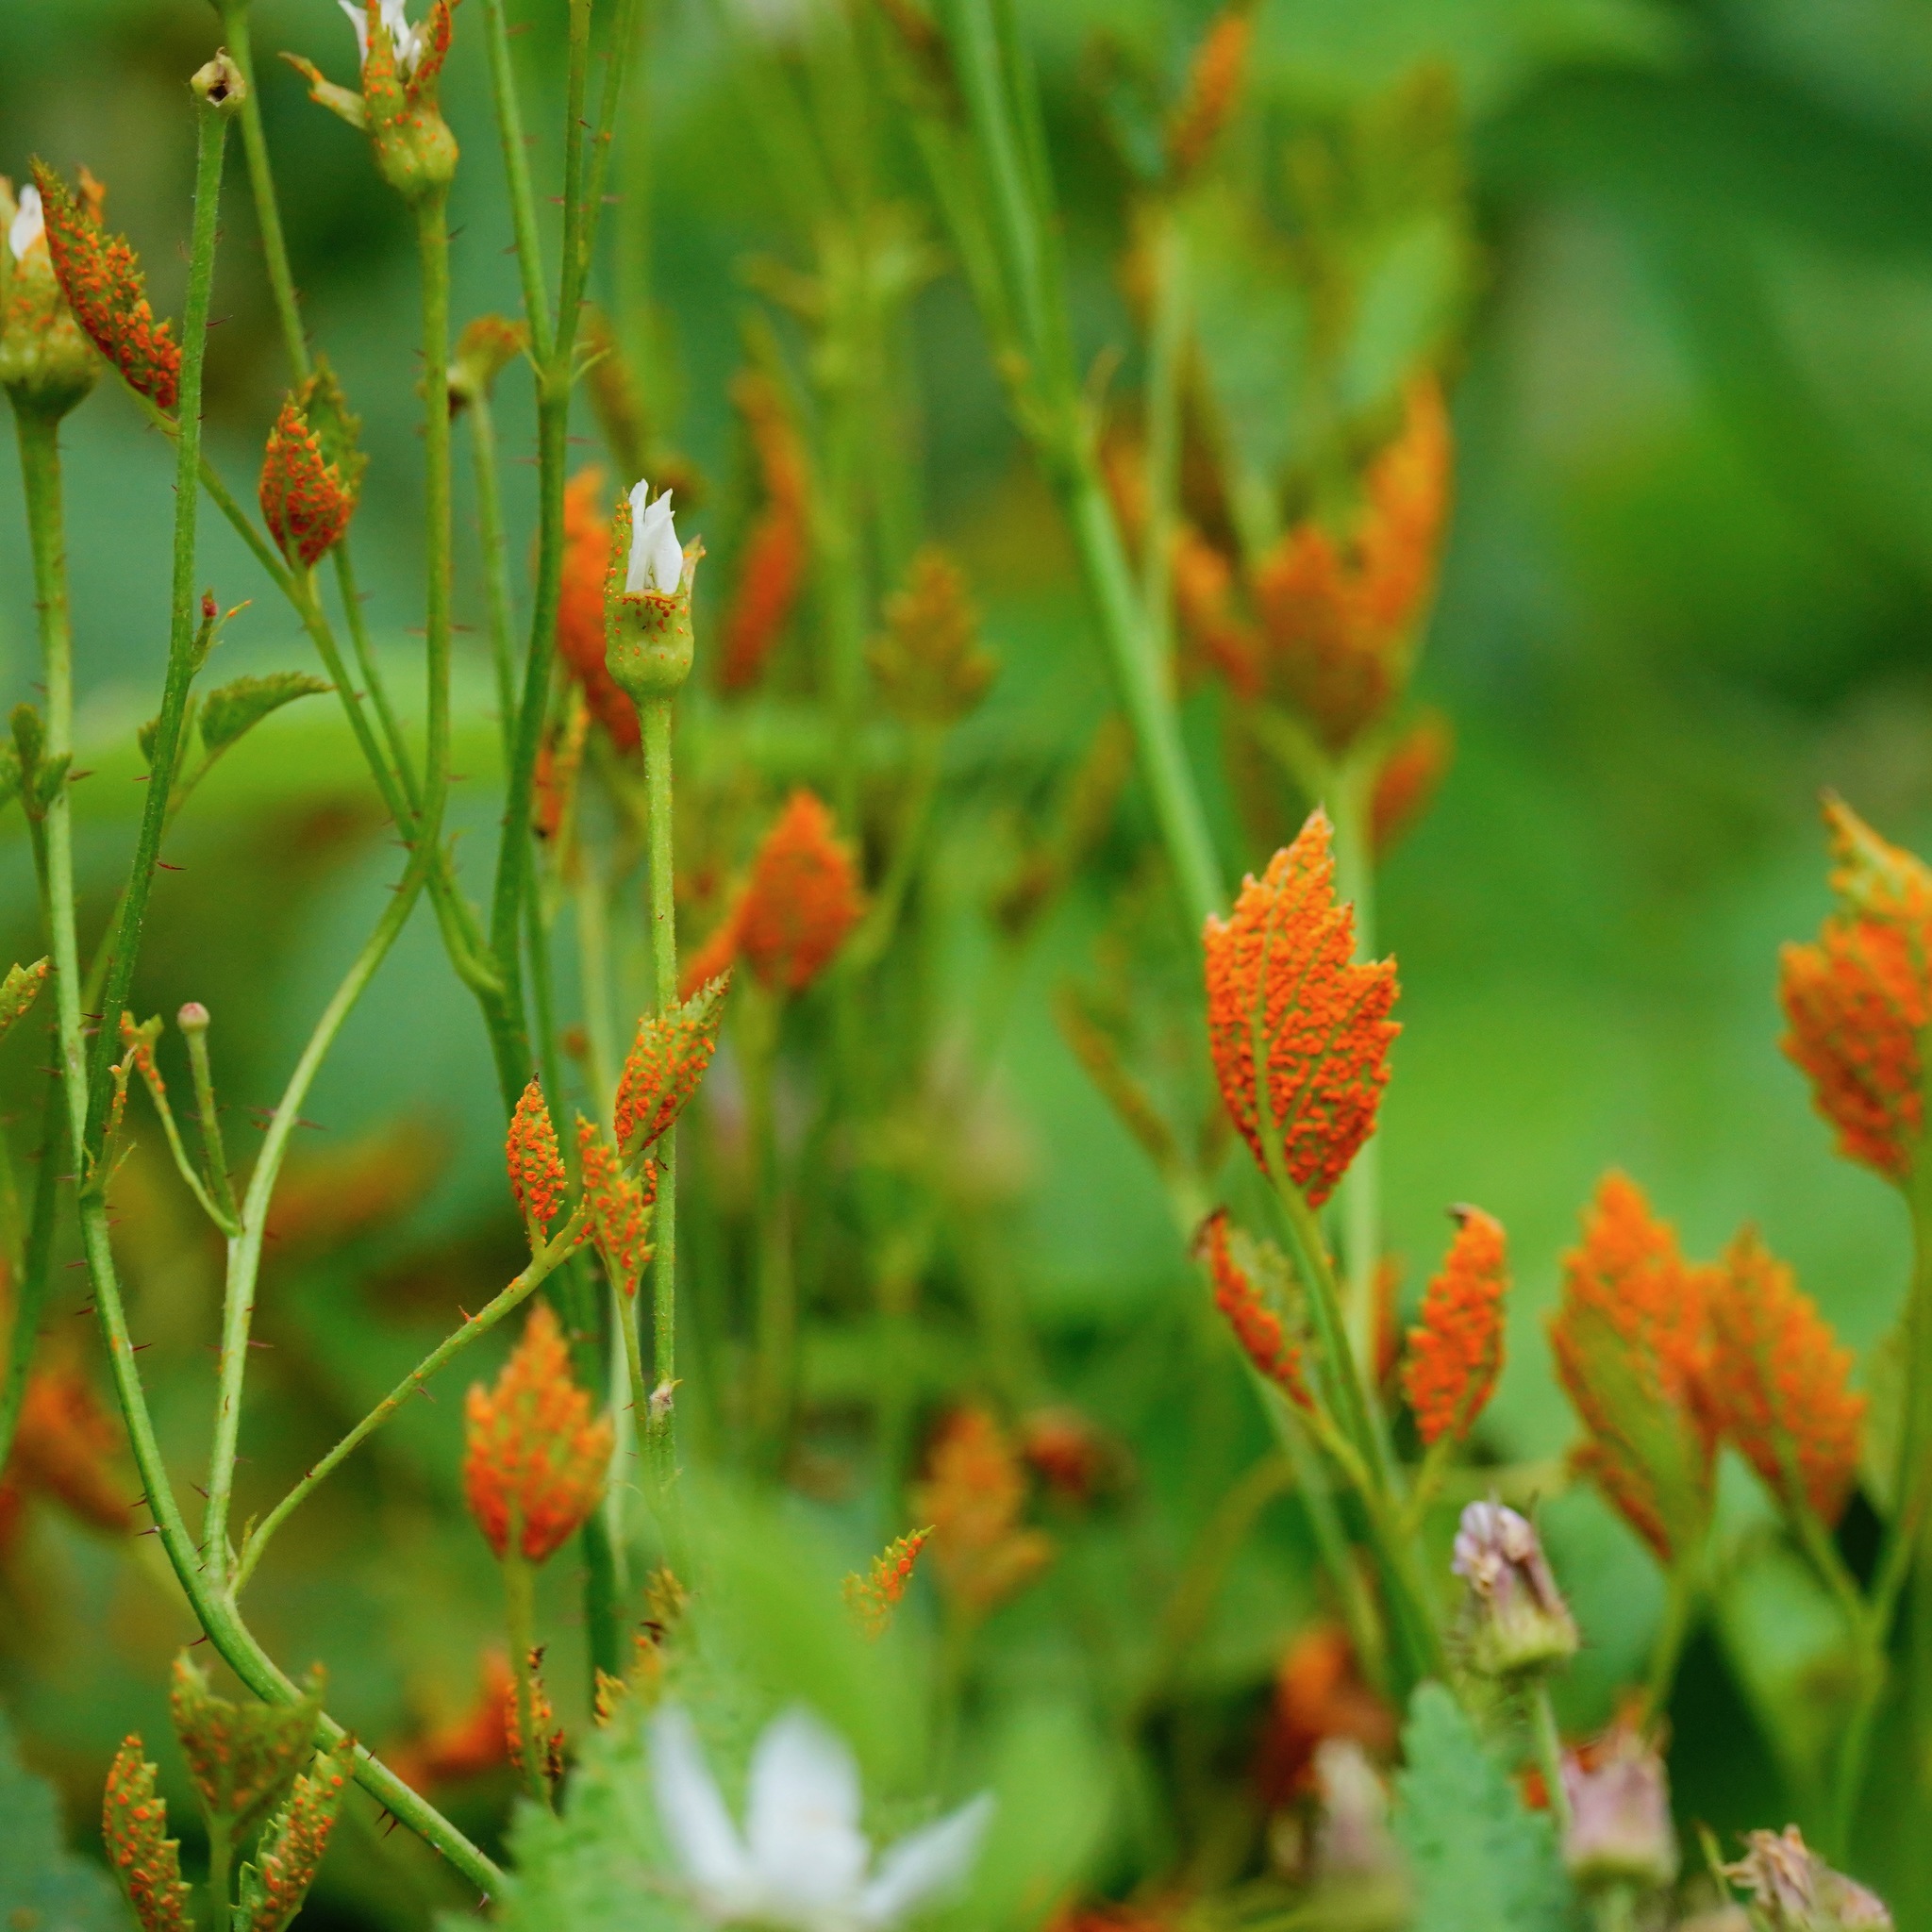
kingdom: Fungi
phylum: Basidiomycota
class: Pucciniomycetes
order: Pucciniales
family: Phragmidiaceae
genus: Arthuriomyces
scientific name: Arthuriomyces peckianus
